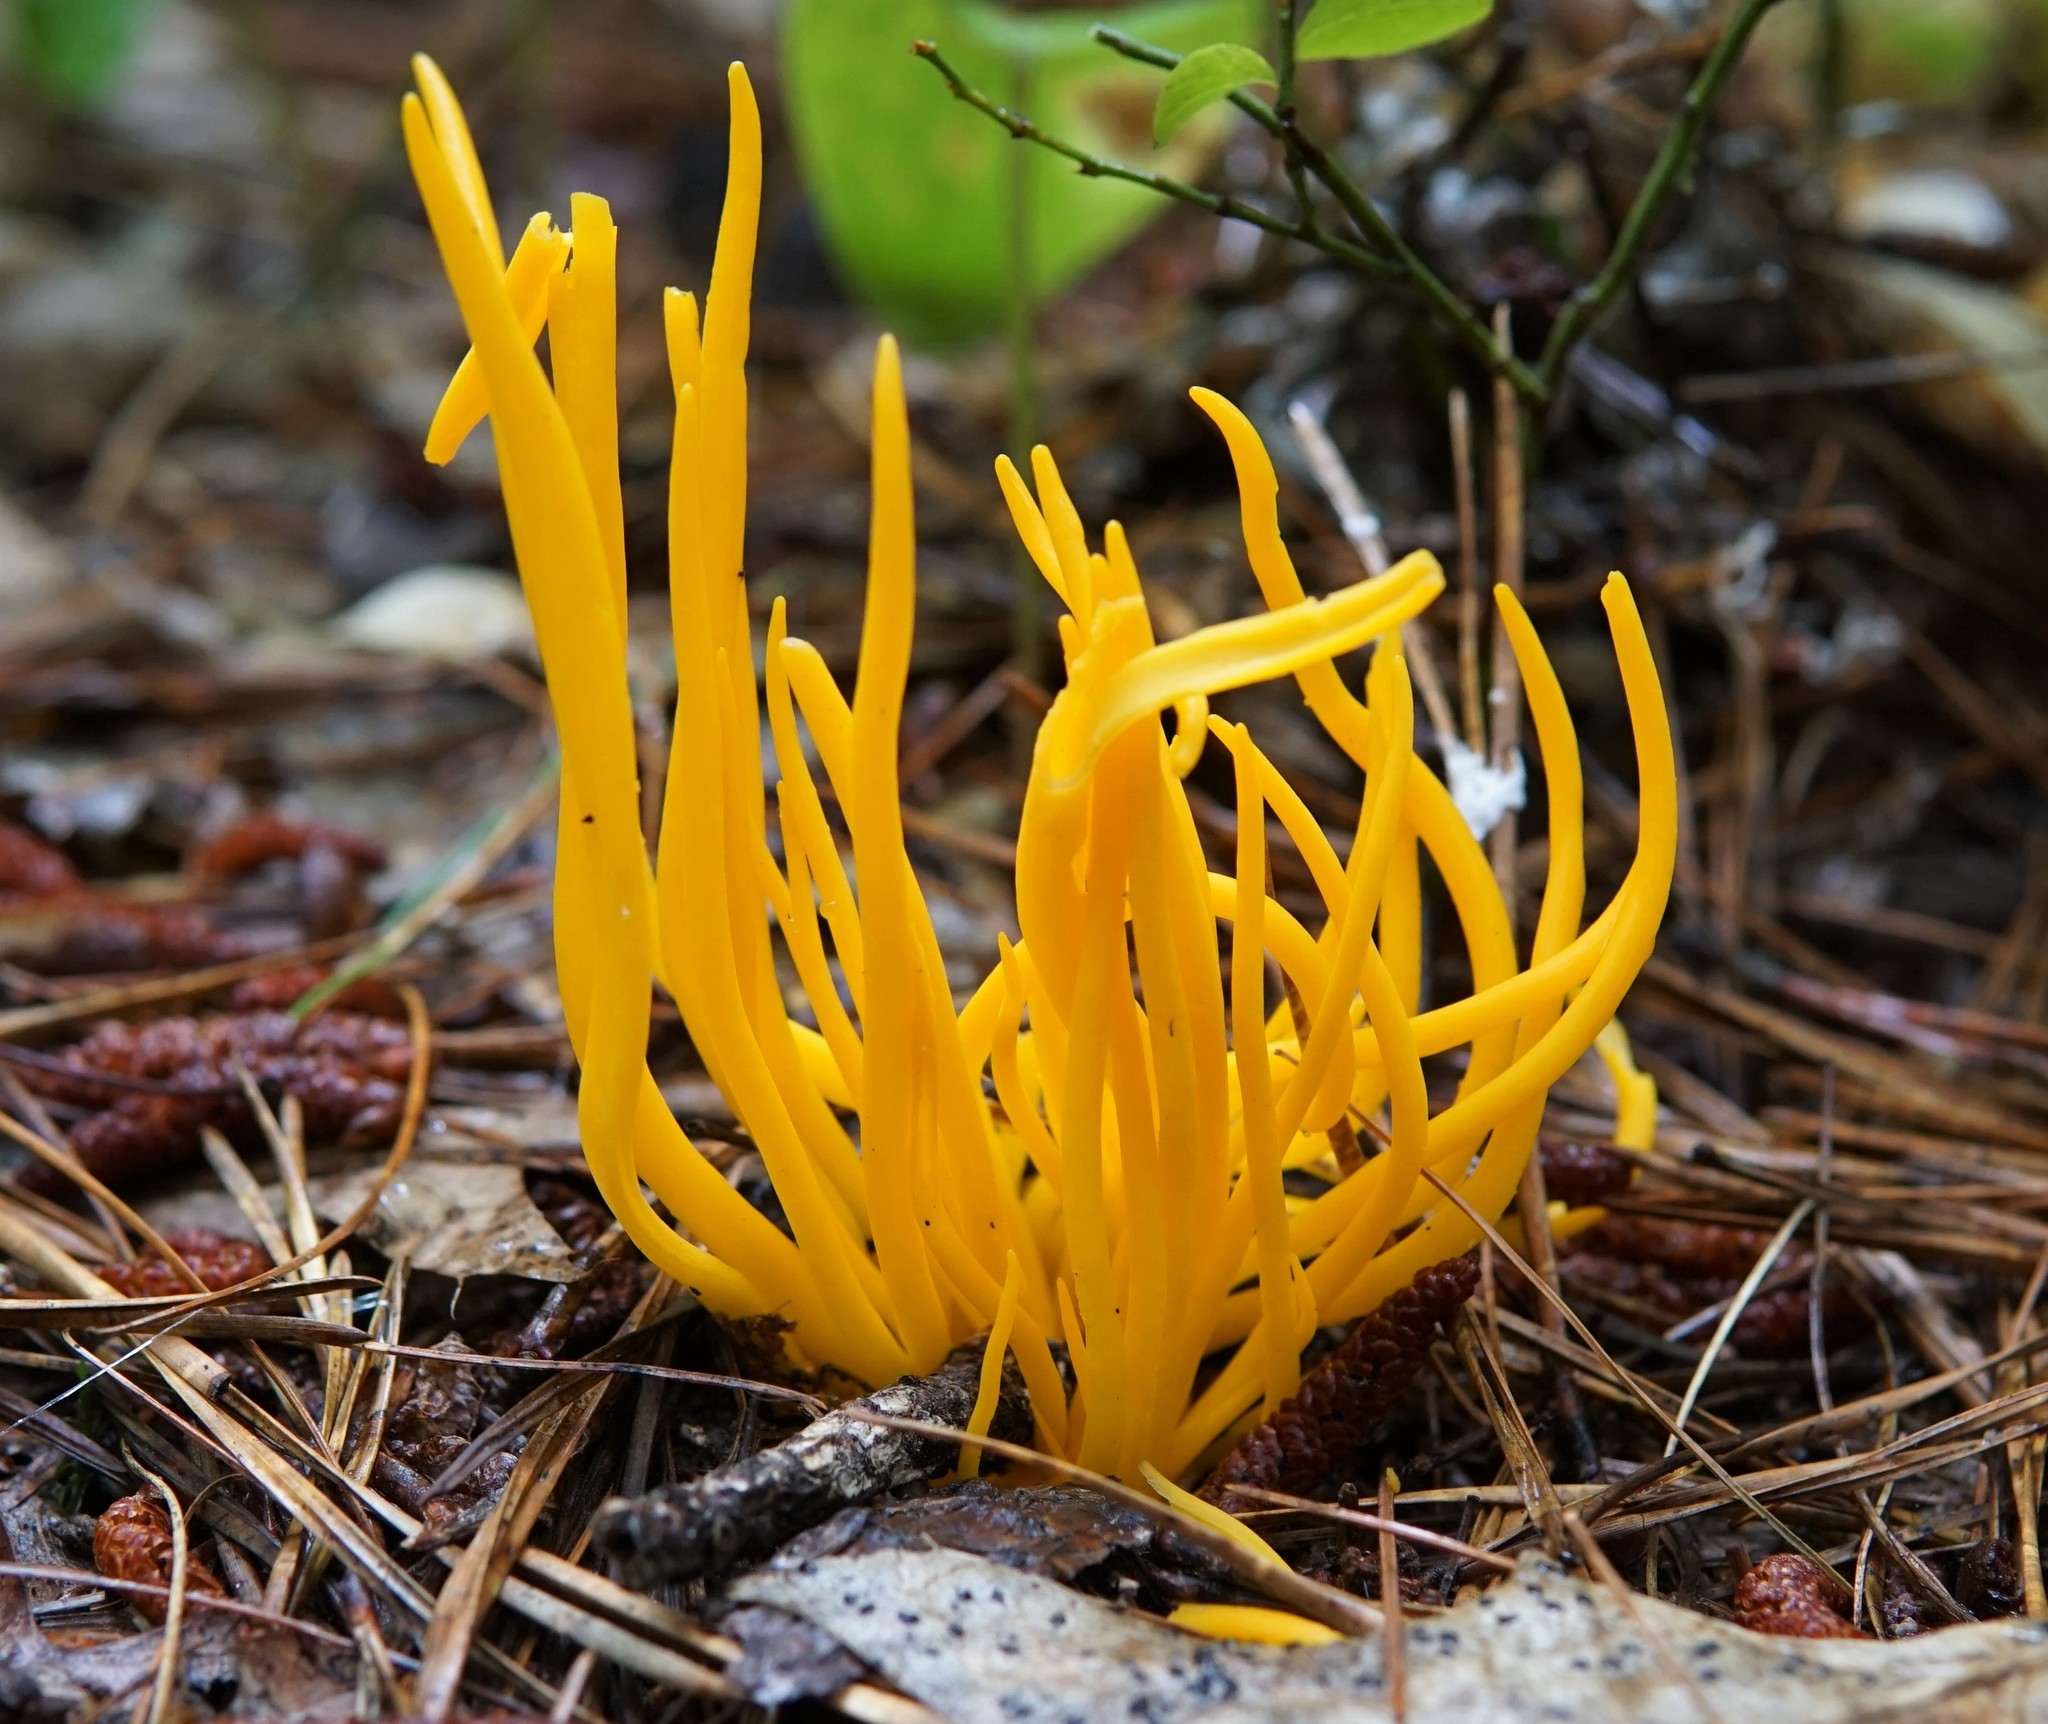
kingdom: Fungi
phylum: Basidiomycota
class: Agaricomycetes
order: Agaricales
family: Clavariaceae
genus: Clavulinopsis
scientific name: Clavulinopsis fusiformis
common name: Golden spindles
